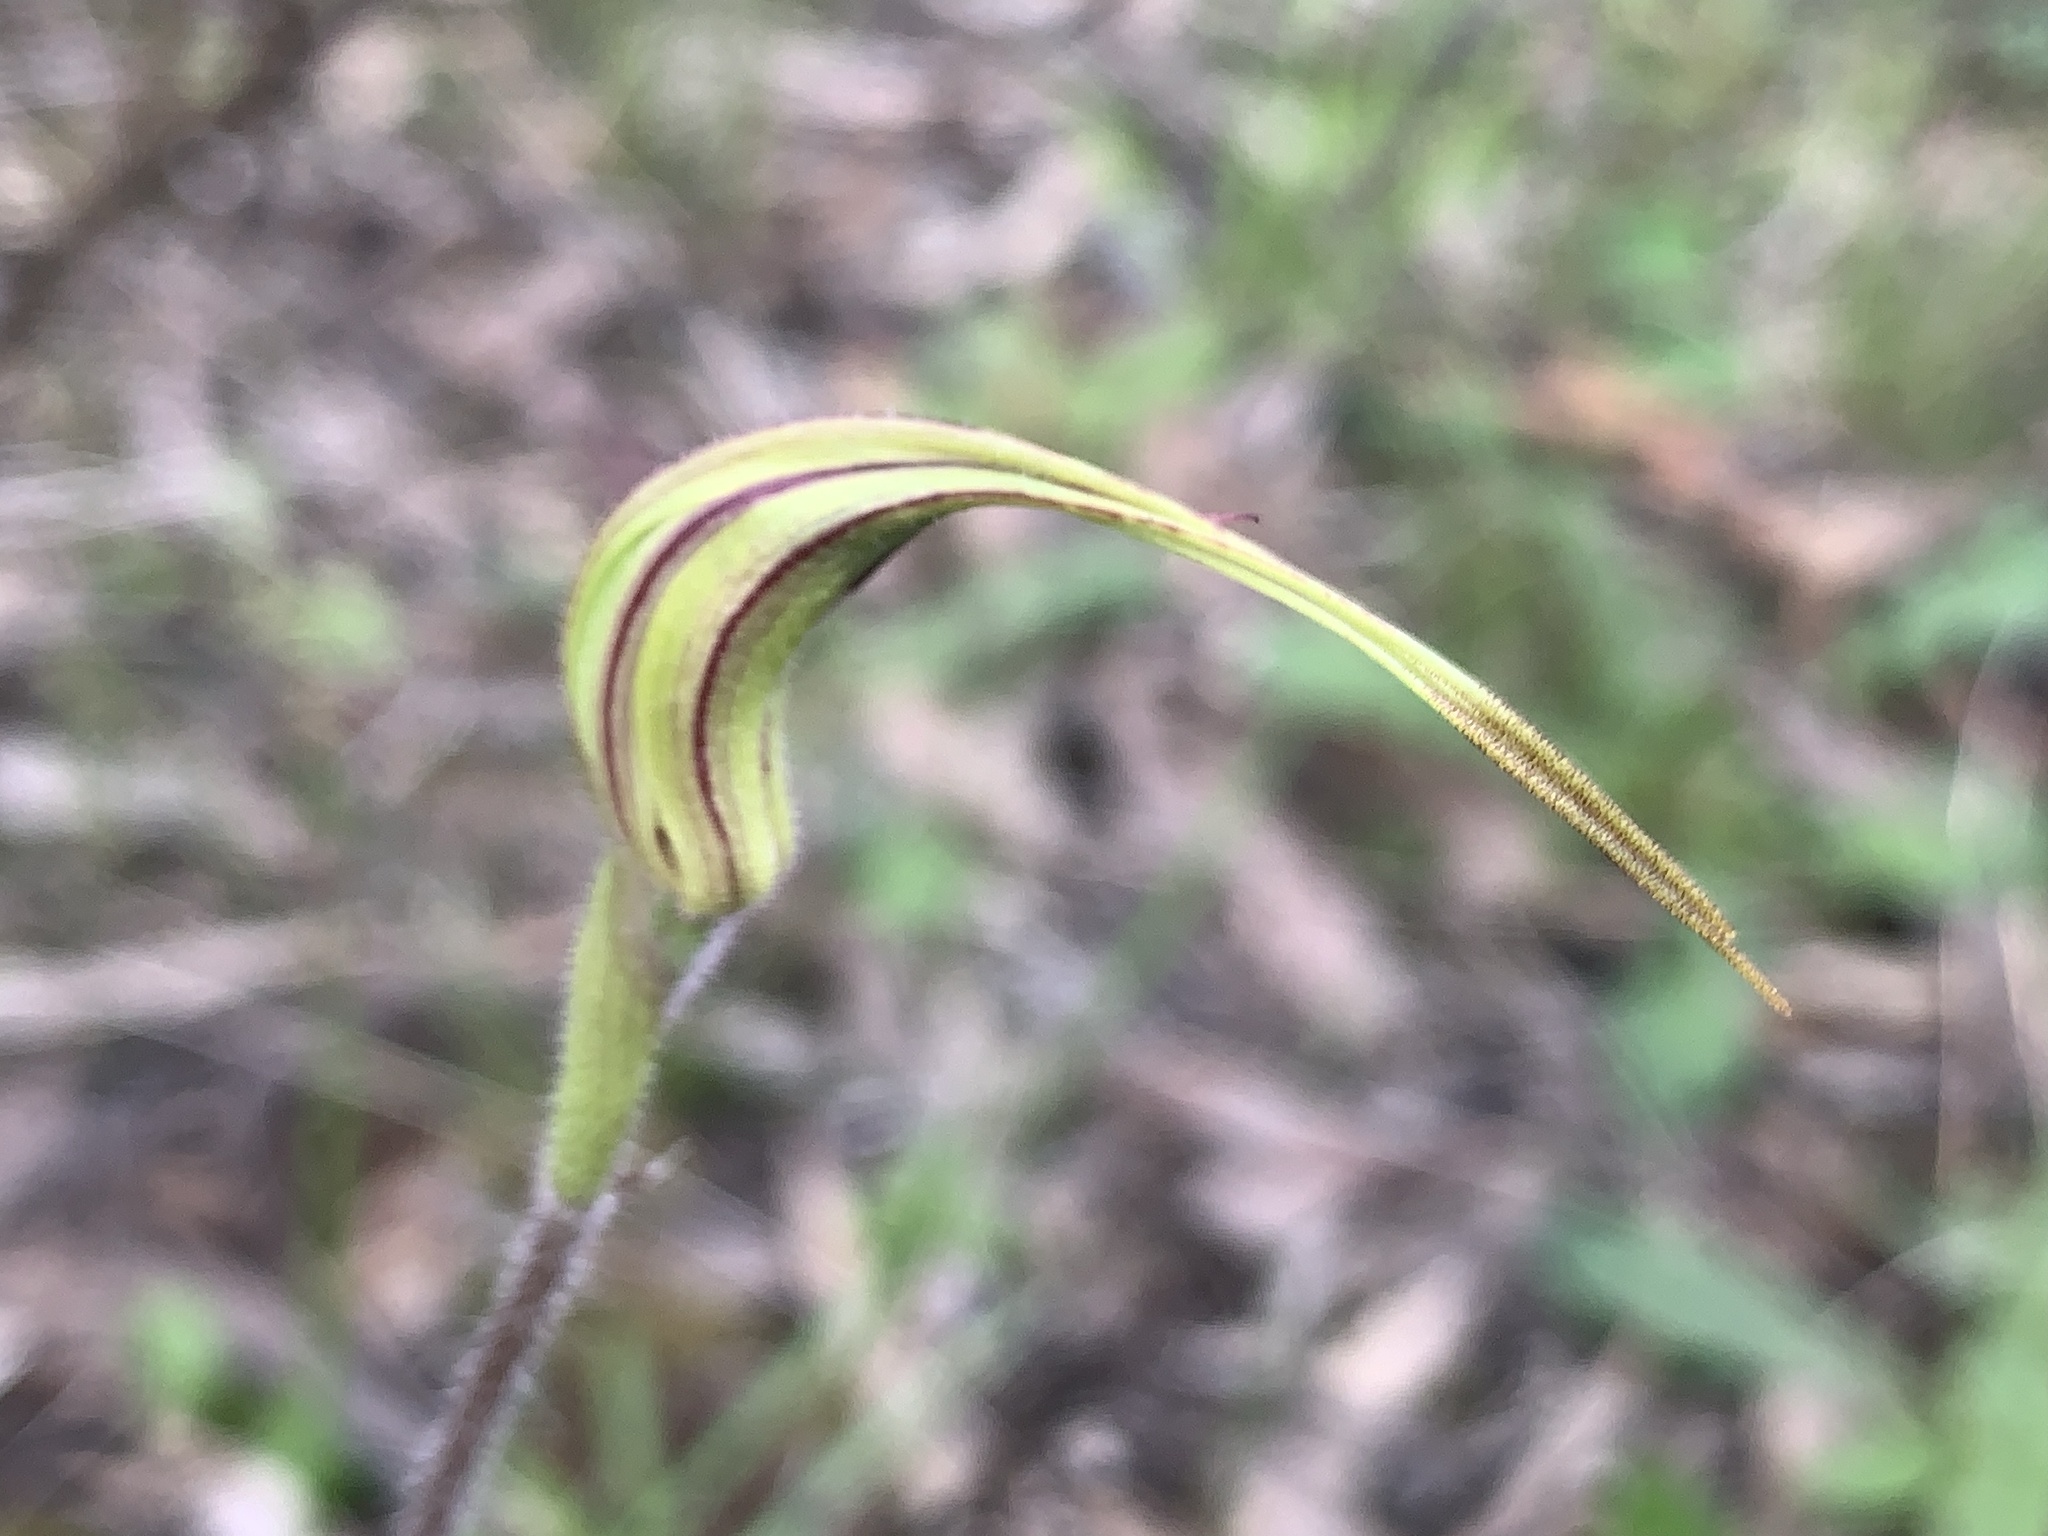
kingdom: Plantae
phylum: Tracheophyta
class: Liliopsida
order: Asparagales
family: Orchidaceae
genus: Caladenia
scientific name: Caladenia parva
